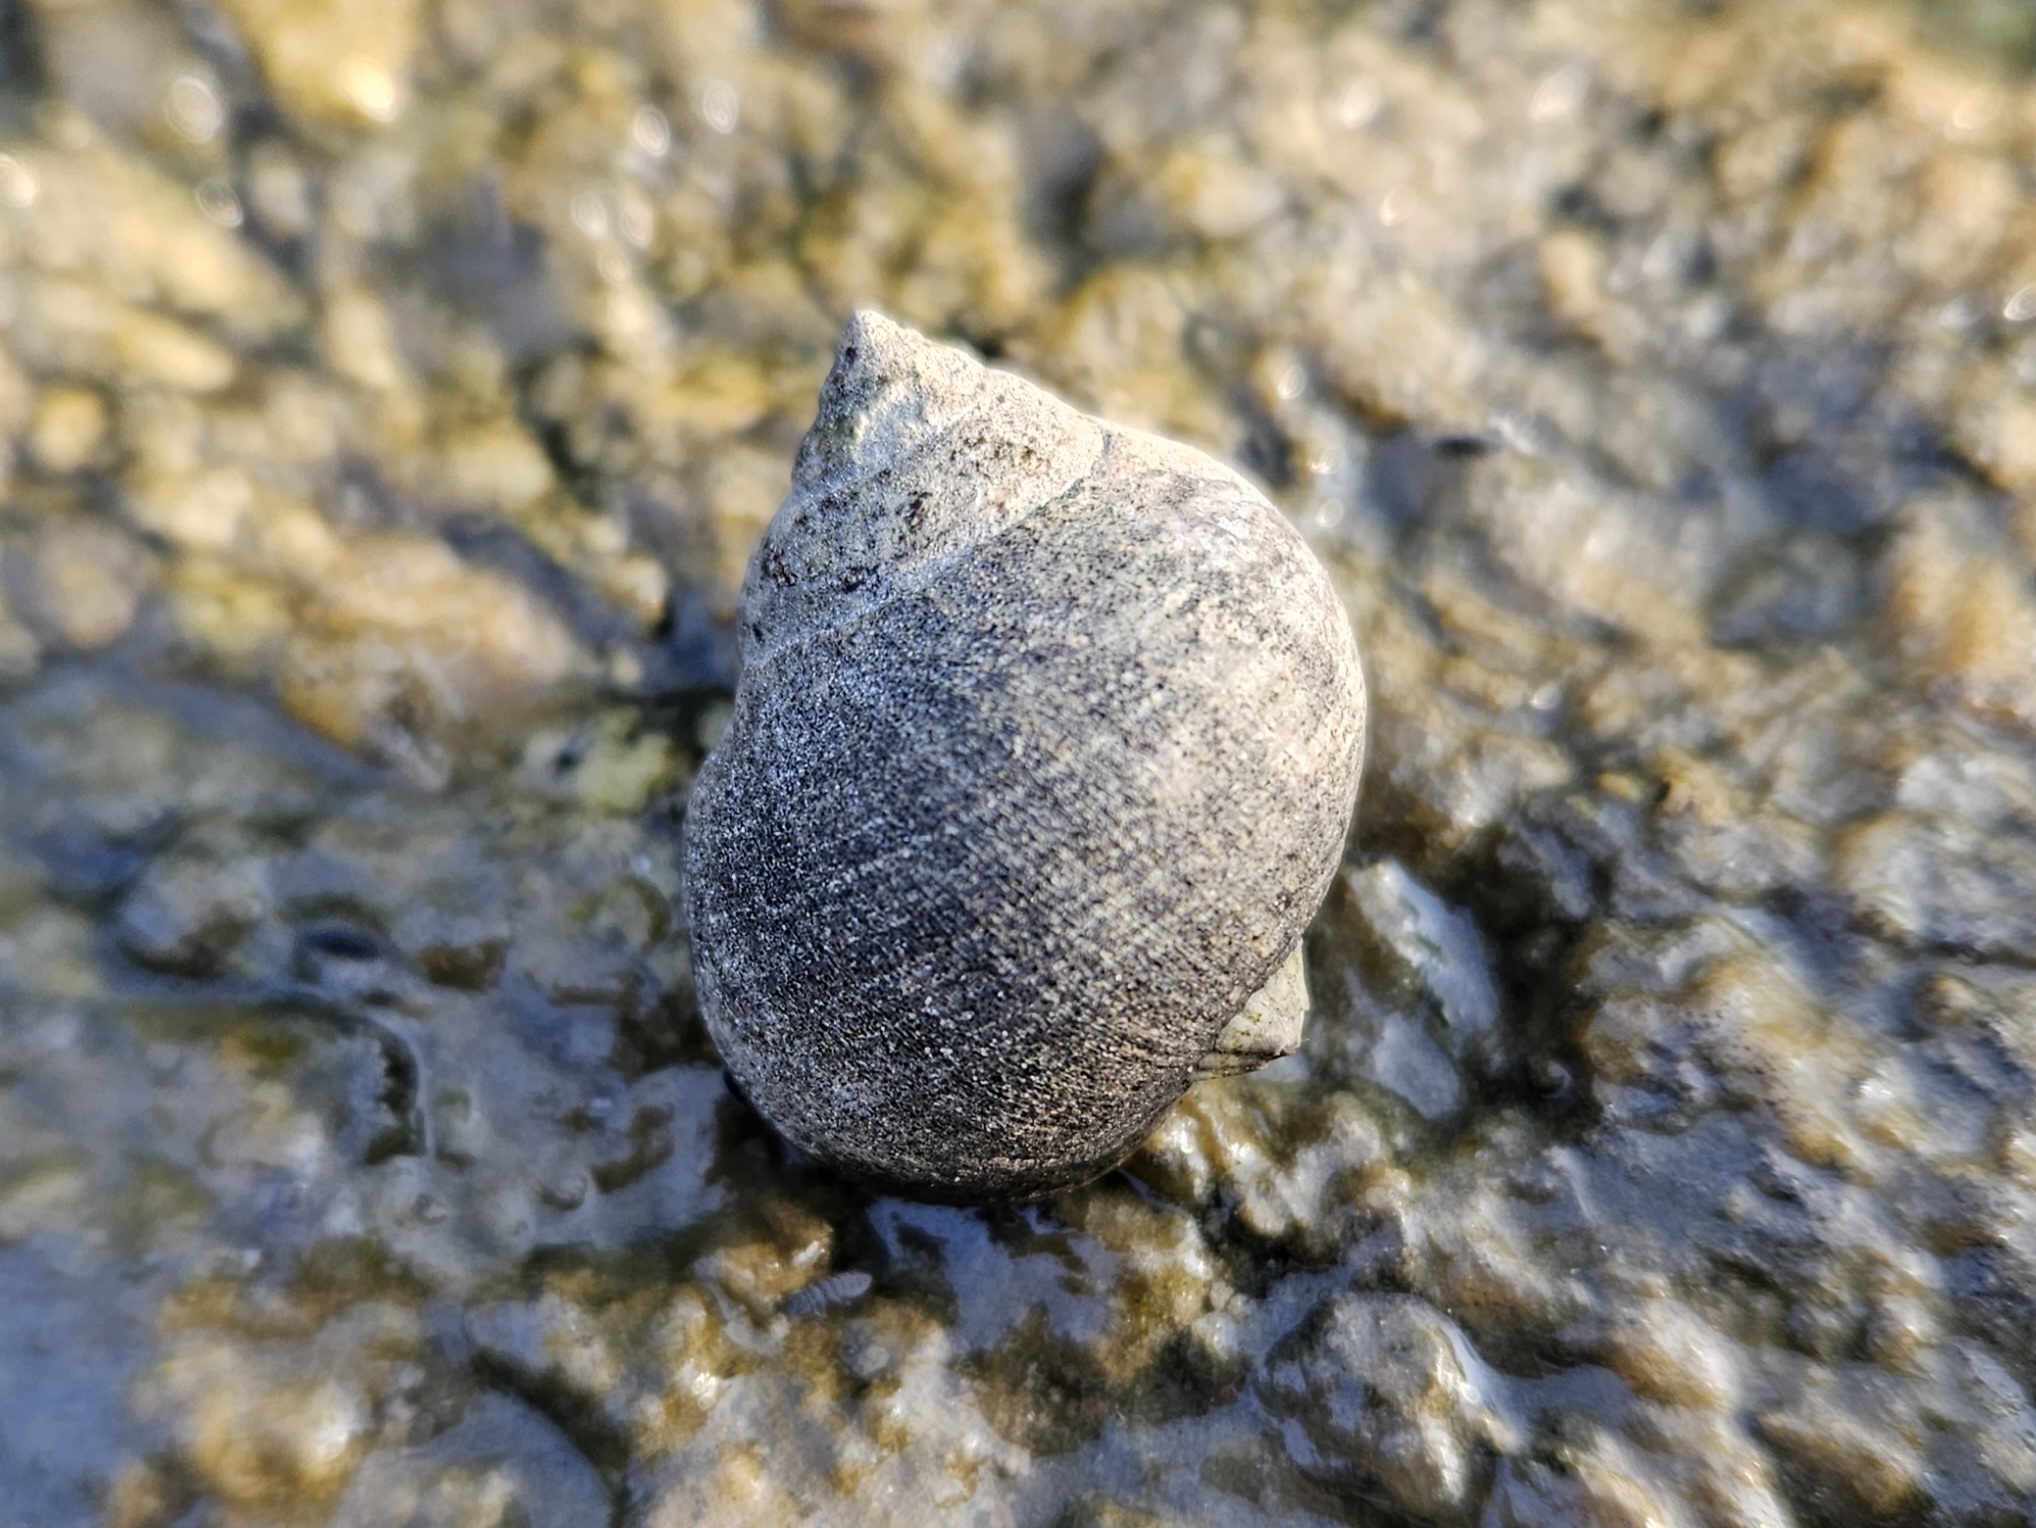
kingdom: Animalia
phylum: Mollusca
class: Gastropoda
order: Littorinimorpha
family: Littorinidae
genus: Littorina
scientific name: Littorina littorea
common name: Common periwinkle
